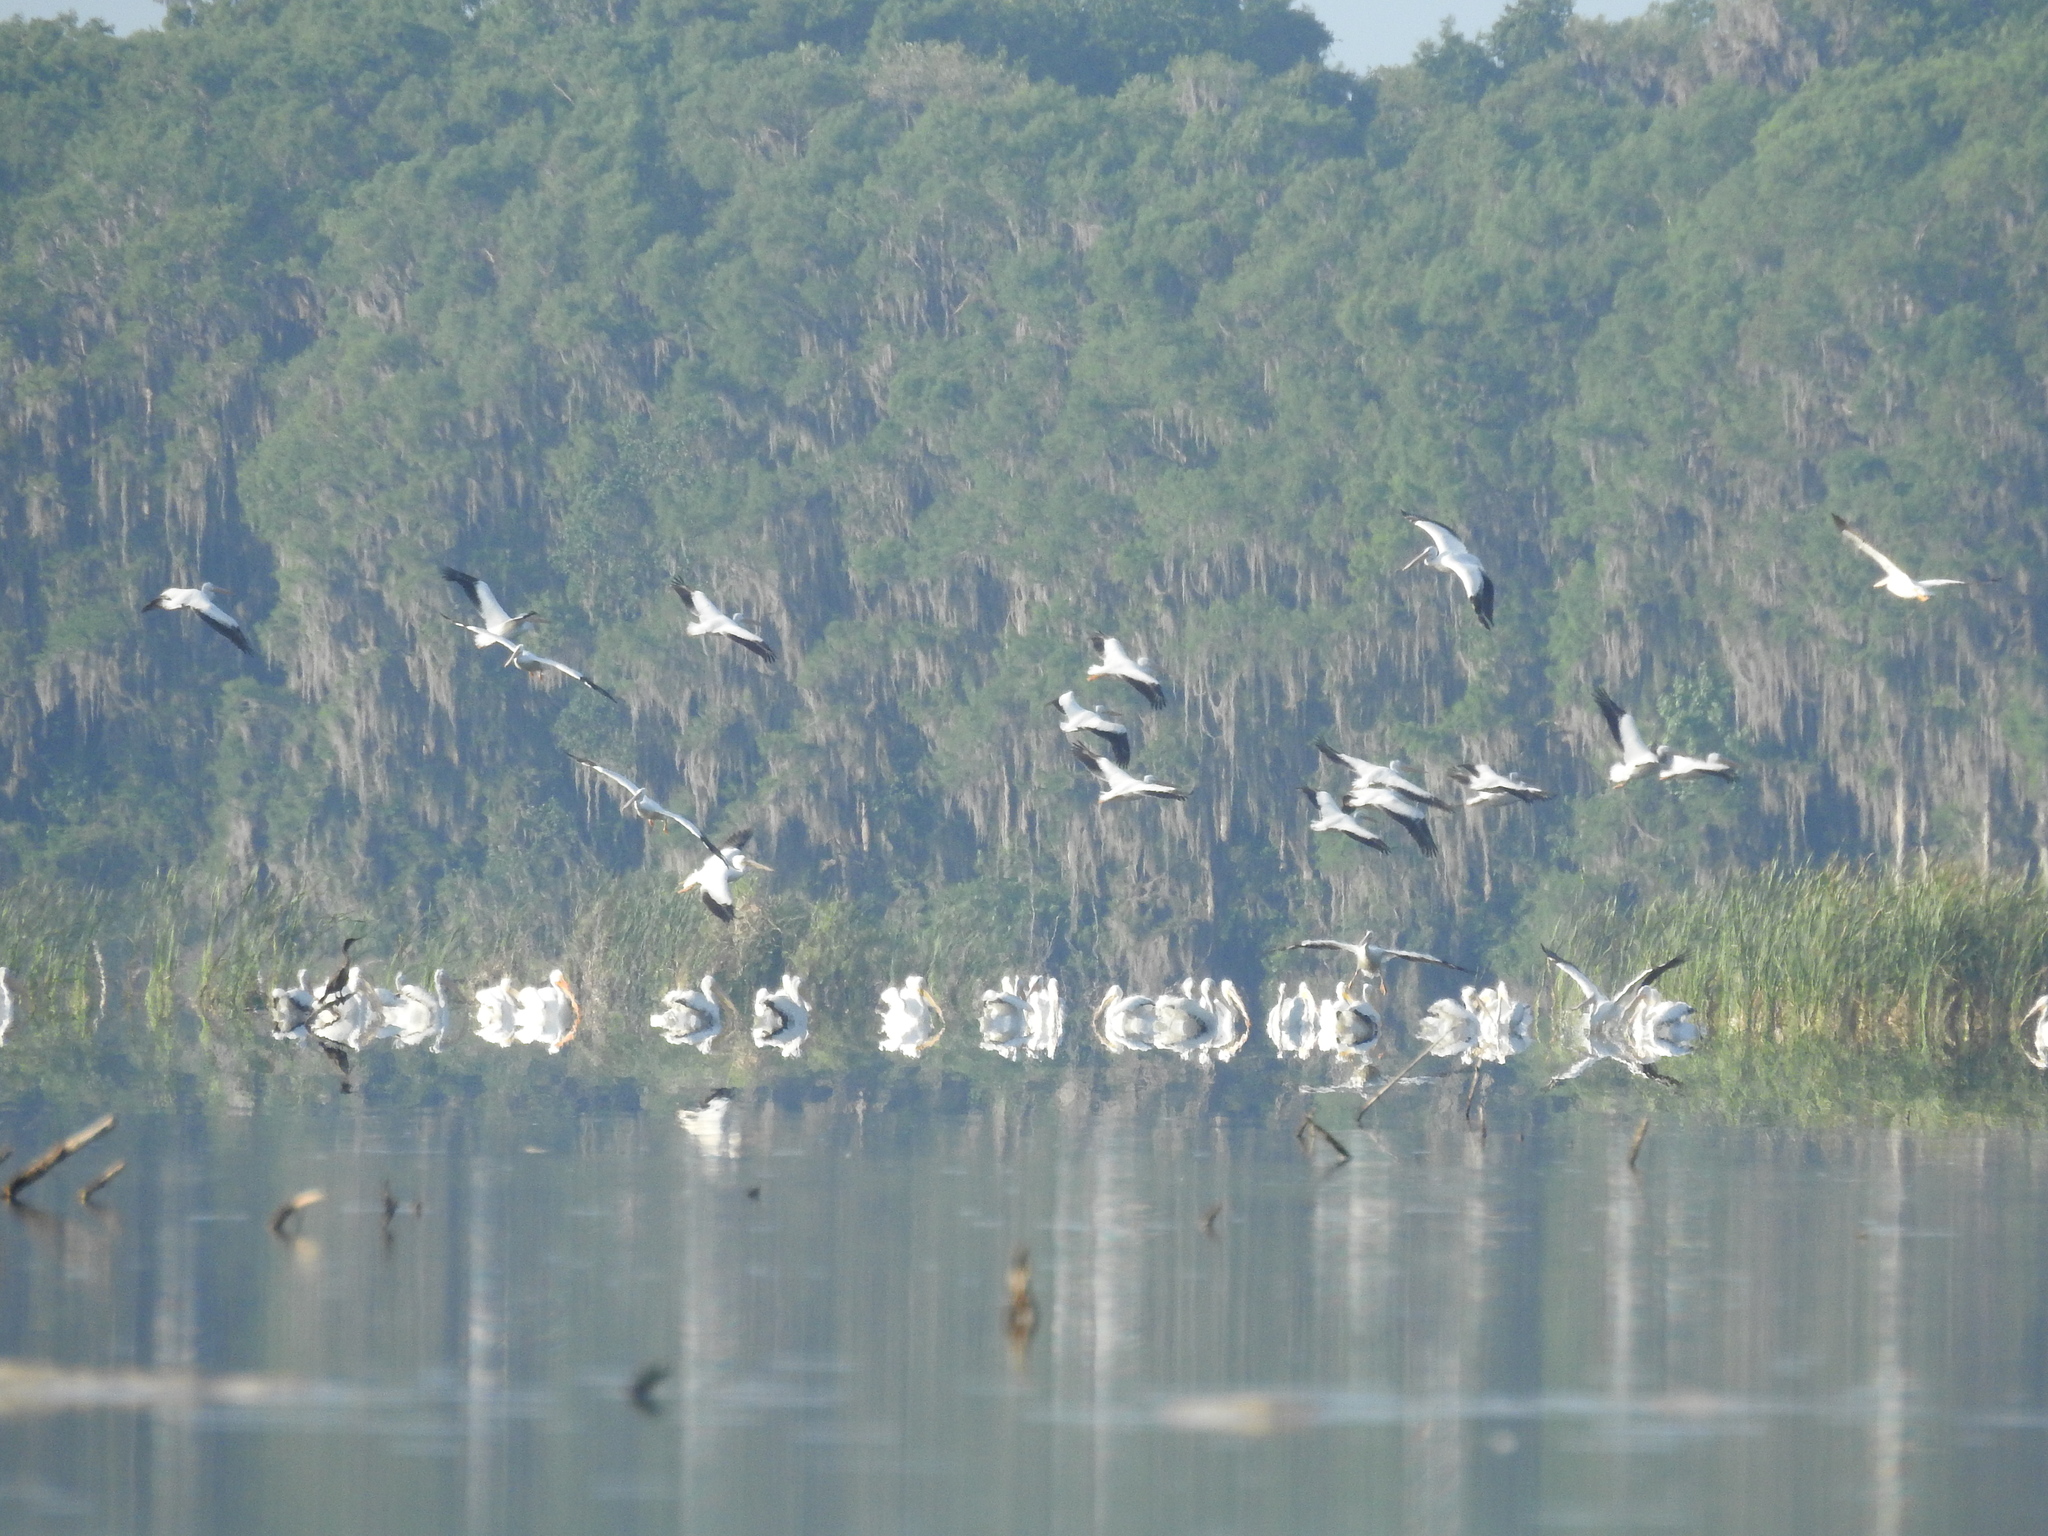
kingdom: Animalia
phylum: Chordata
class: Aves
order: Pelecaniformes
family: Pelecanidae
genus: Pelecanus
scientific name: Pelecanus erythrorhynchos
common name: American white pelican
